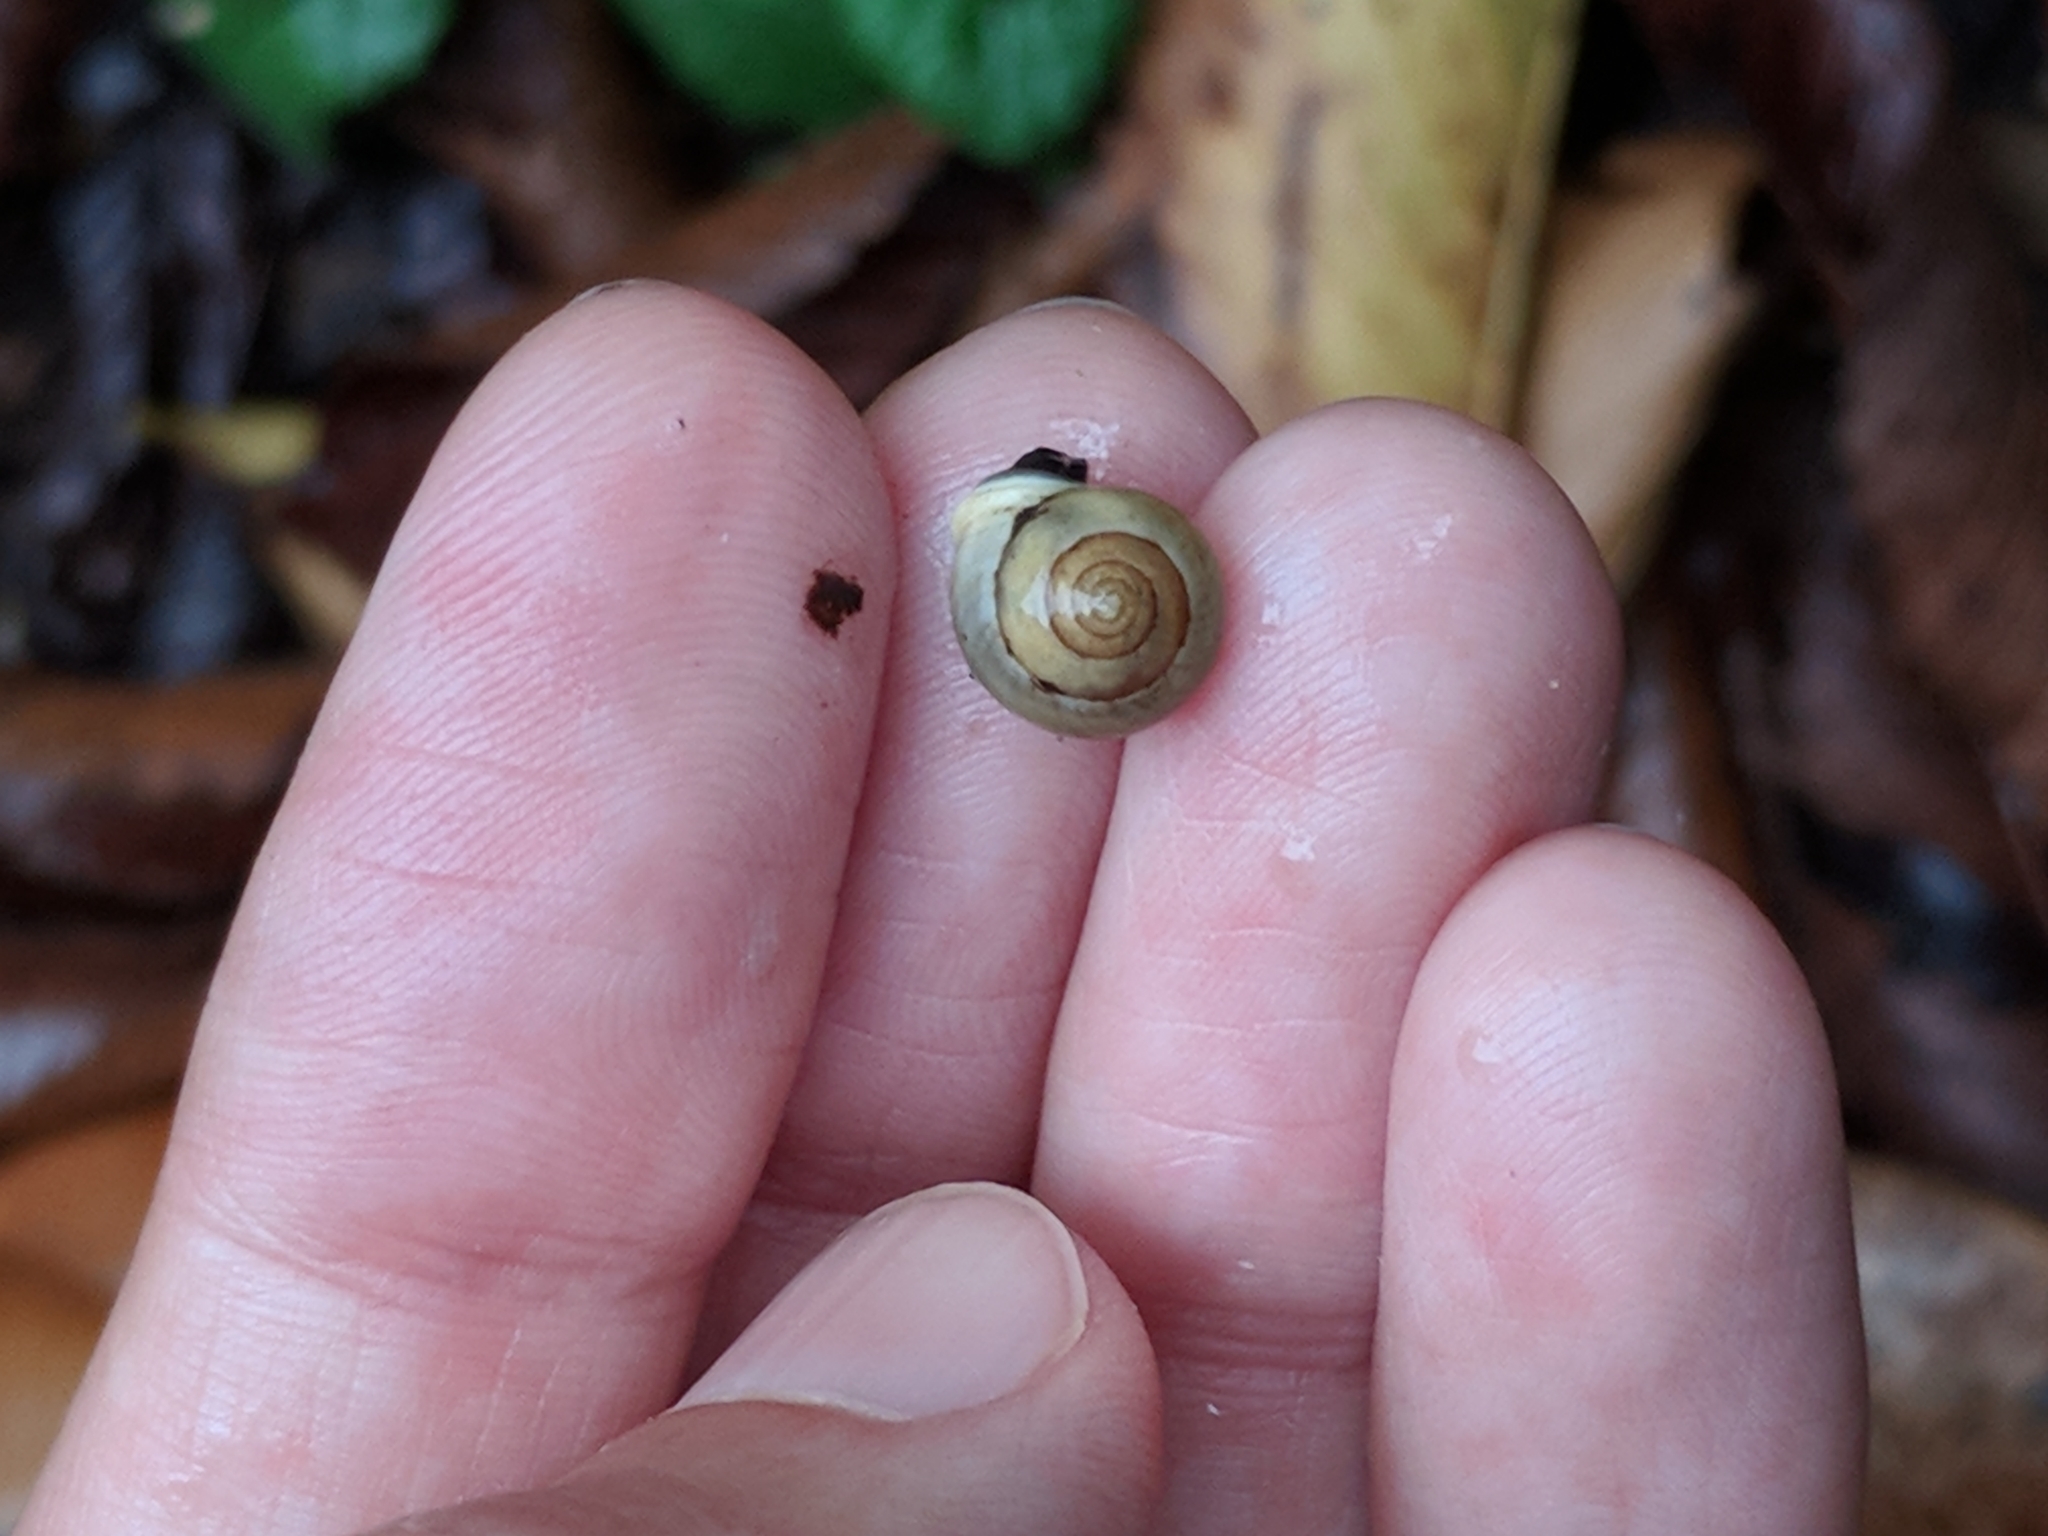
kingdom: Animalia
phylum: Mollusca
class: Gastropoda
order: Cycloneritida
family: Helicinidae
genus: Helicina
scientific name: Helicina orbiculata
